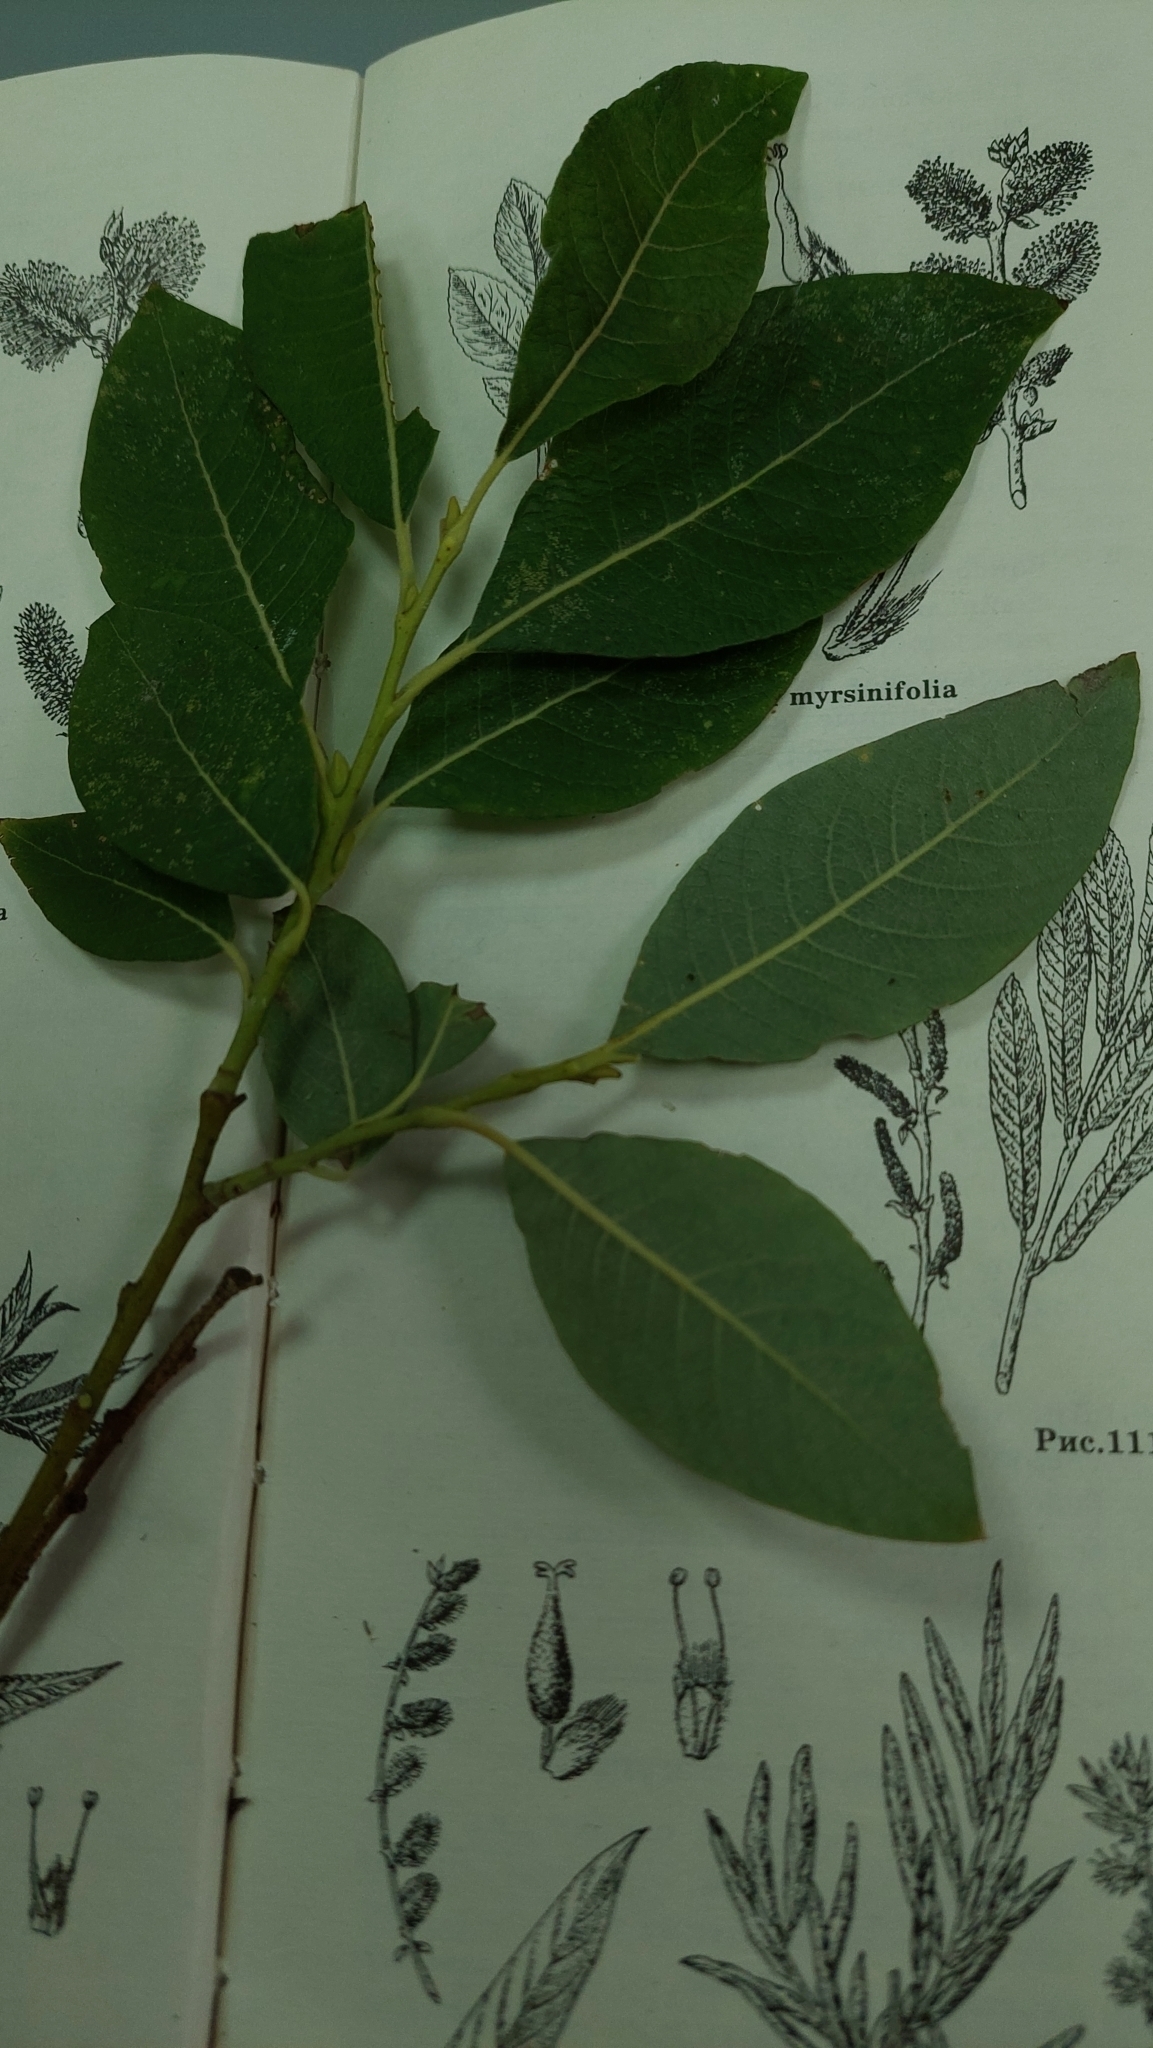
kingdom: Plantae
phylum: Tracheophyta
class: Magnoliopsida
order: Malpighiales
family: Salicaceae
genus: Salix
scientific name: Salix caprea
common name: Goat willow
